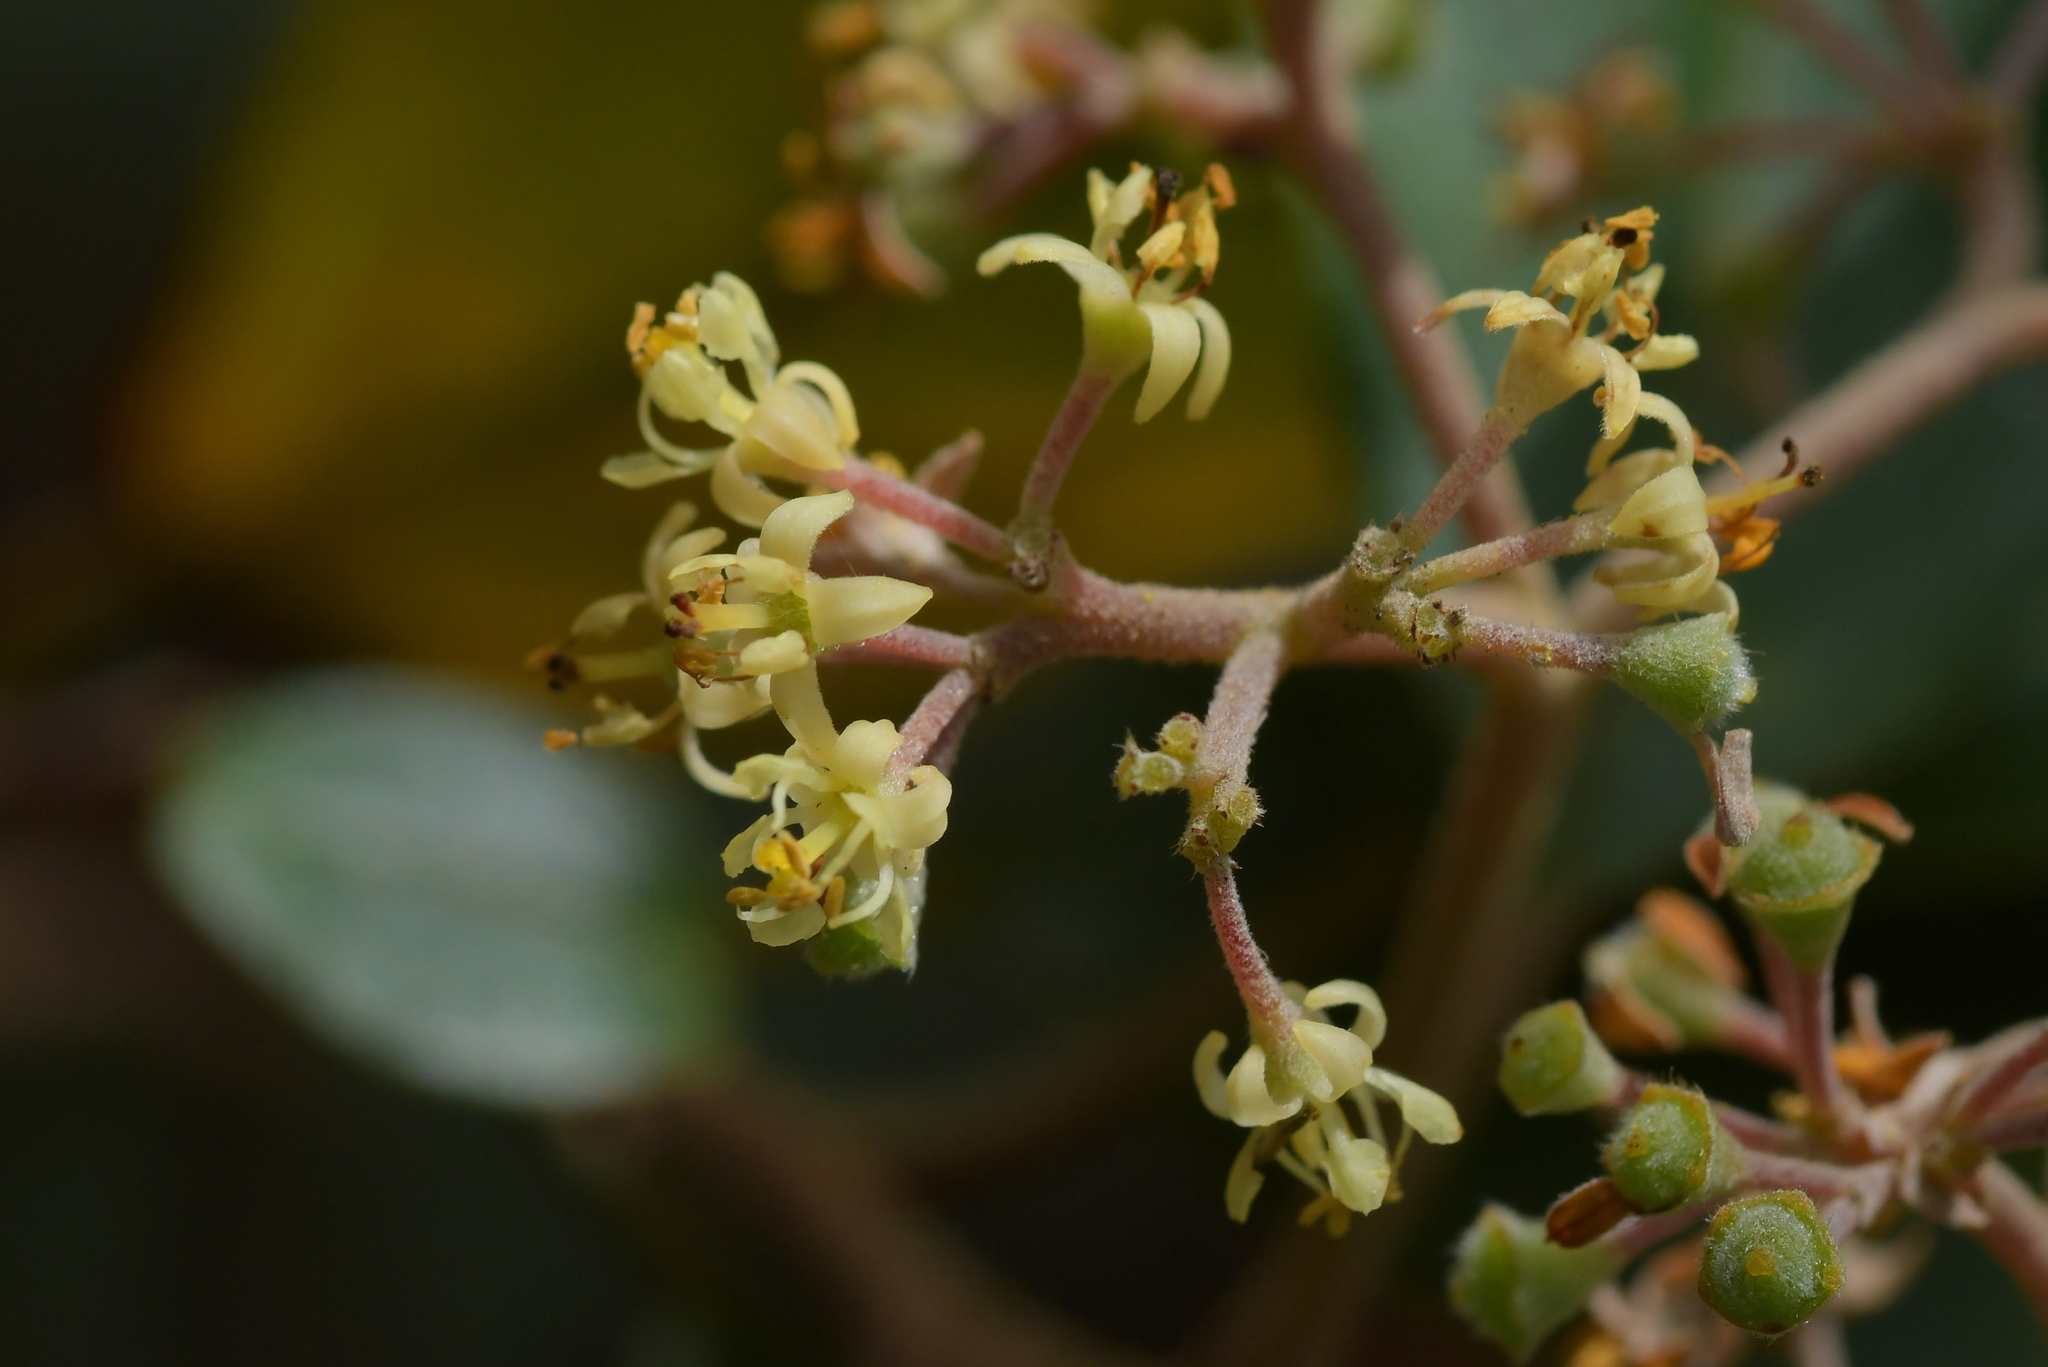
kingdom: Plantae
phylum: Tracheophyta
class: Magnoliopsida
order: Rosales
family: Rhamnaceae
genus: Pomaderris
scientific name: Pomaderris kumeraho
